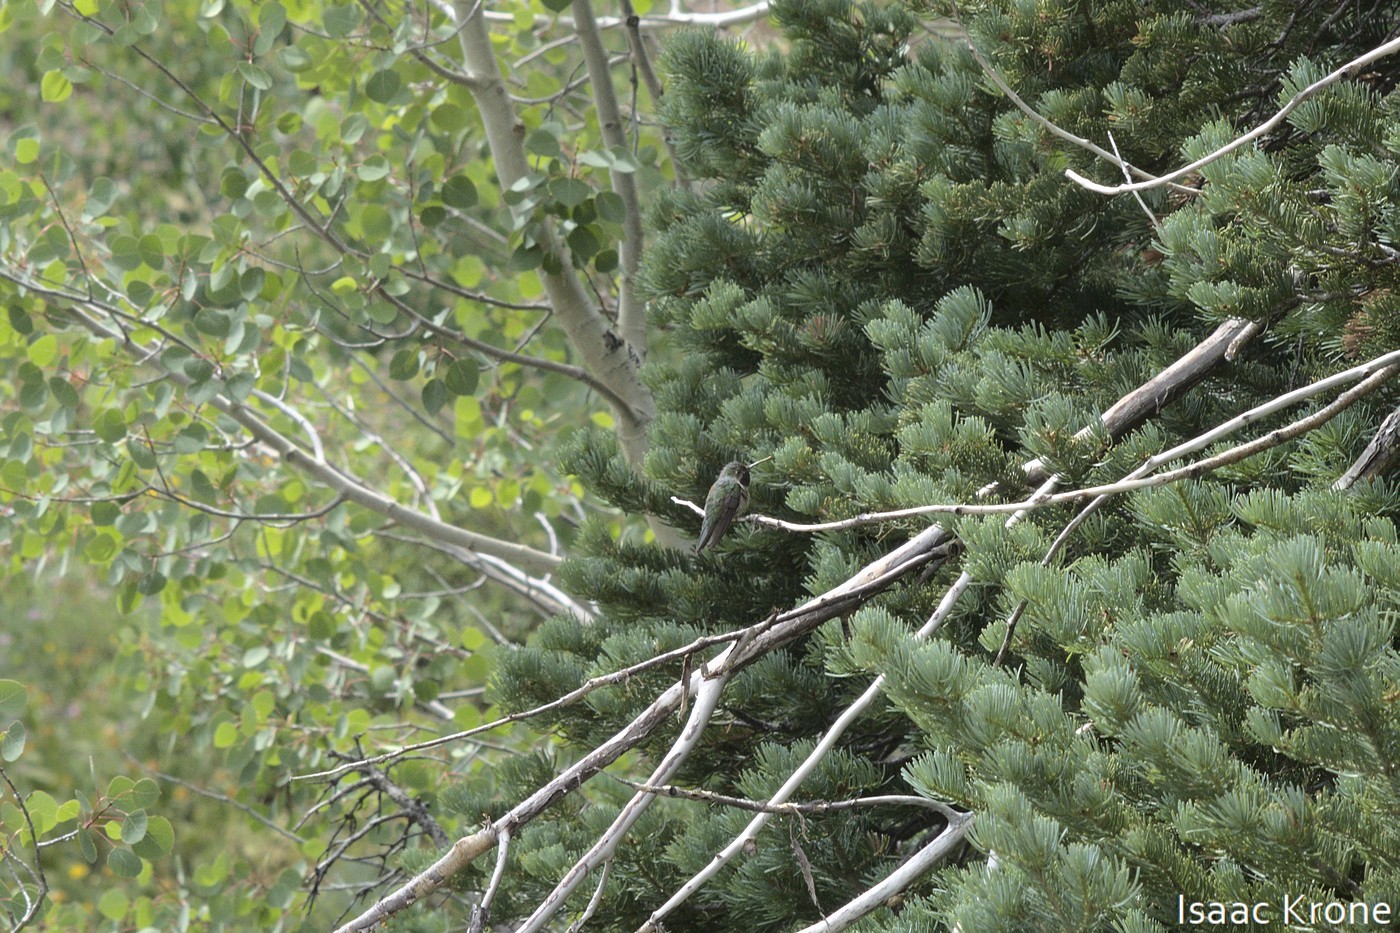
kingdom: Animalia
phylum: Chordata
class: Aves
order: Apodiformes
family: Trochilidae
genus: Selasphorus
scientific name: Selasphorus platycercus
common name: Broad-tailed hummingbird
